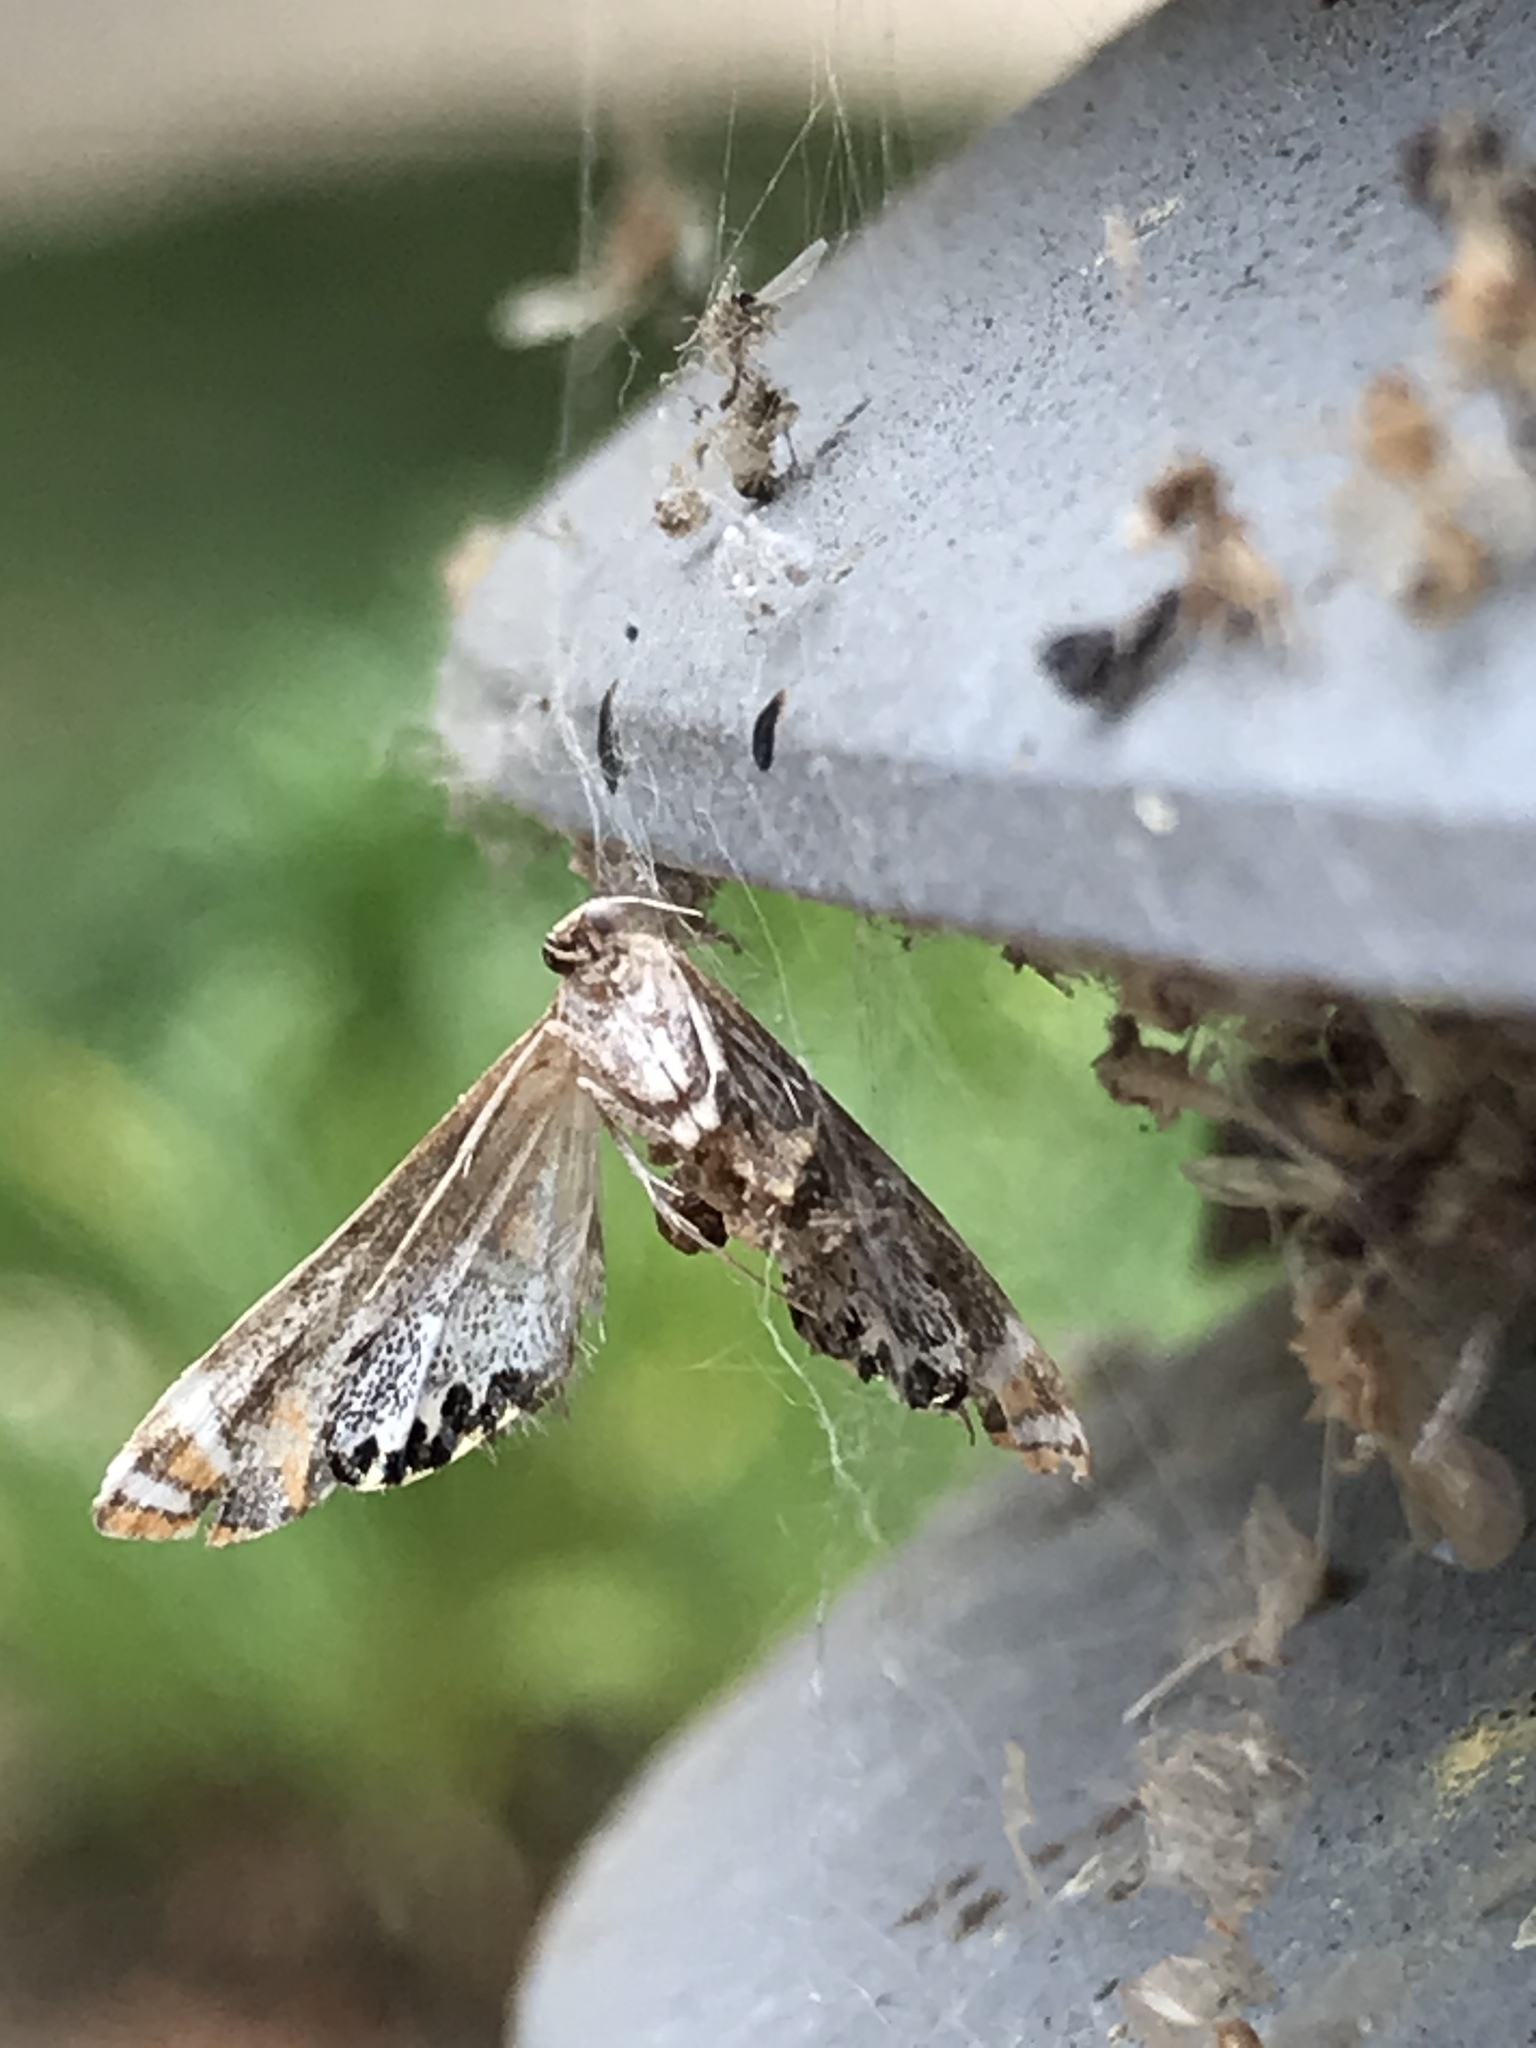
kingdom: Animalia
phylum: Arthropoda
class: Insecta
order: Lepidoptera
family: Crambidae
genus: Petrophila
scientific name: Petrophila jaliscalis
